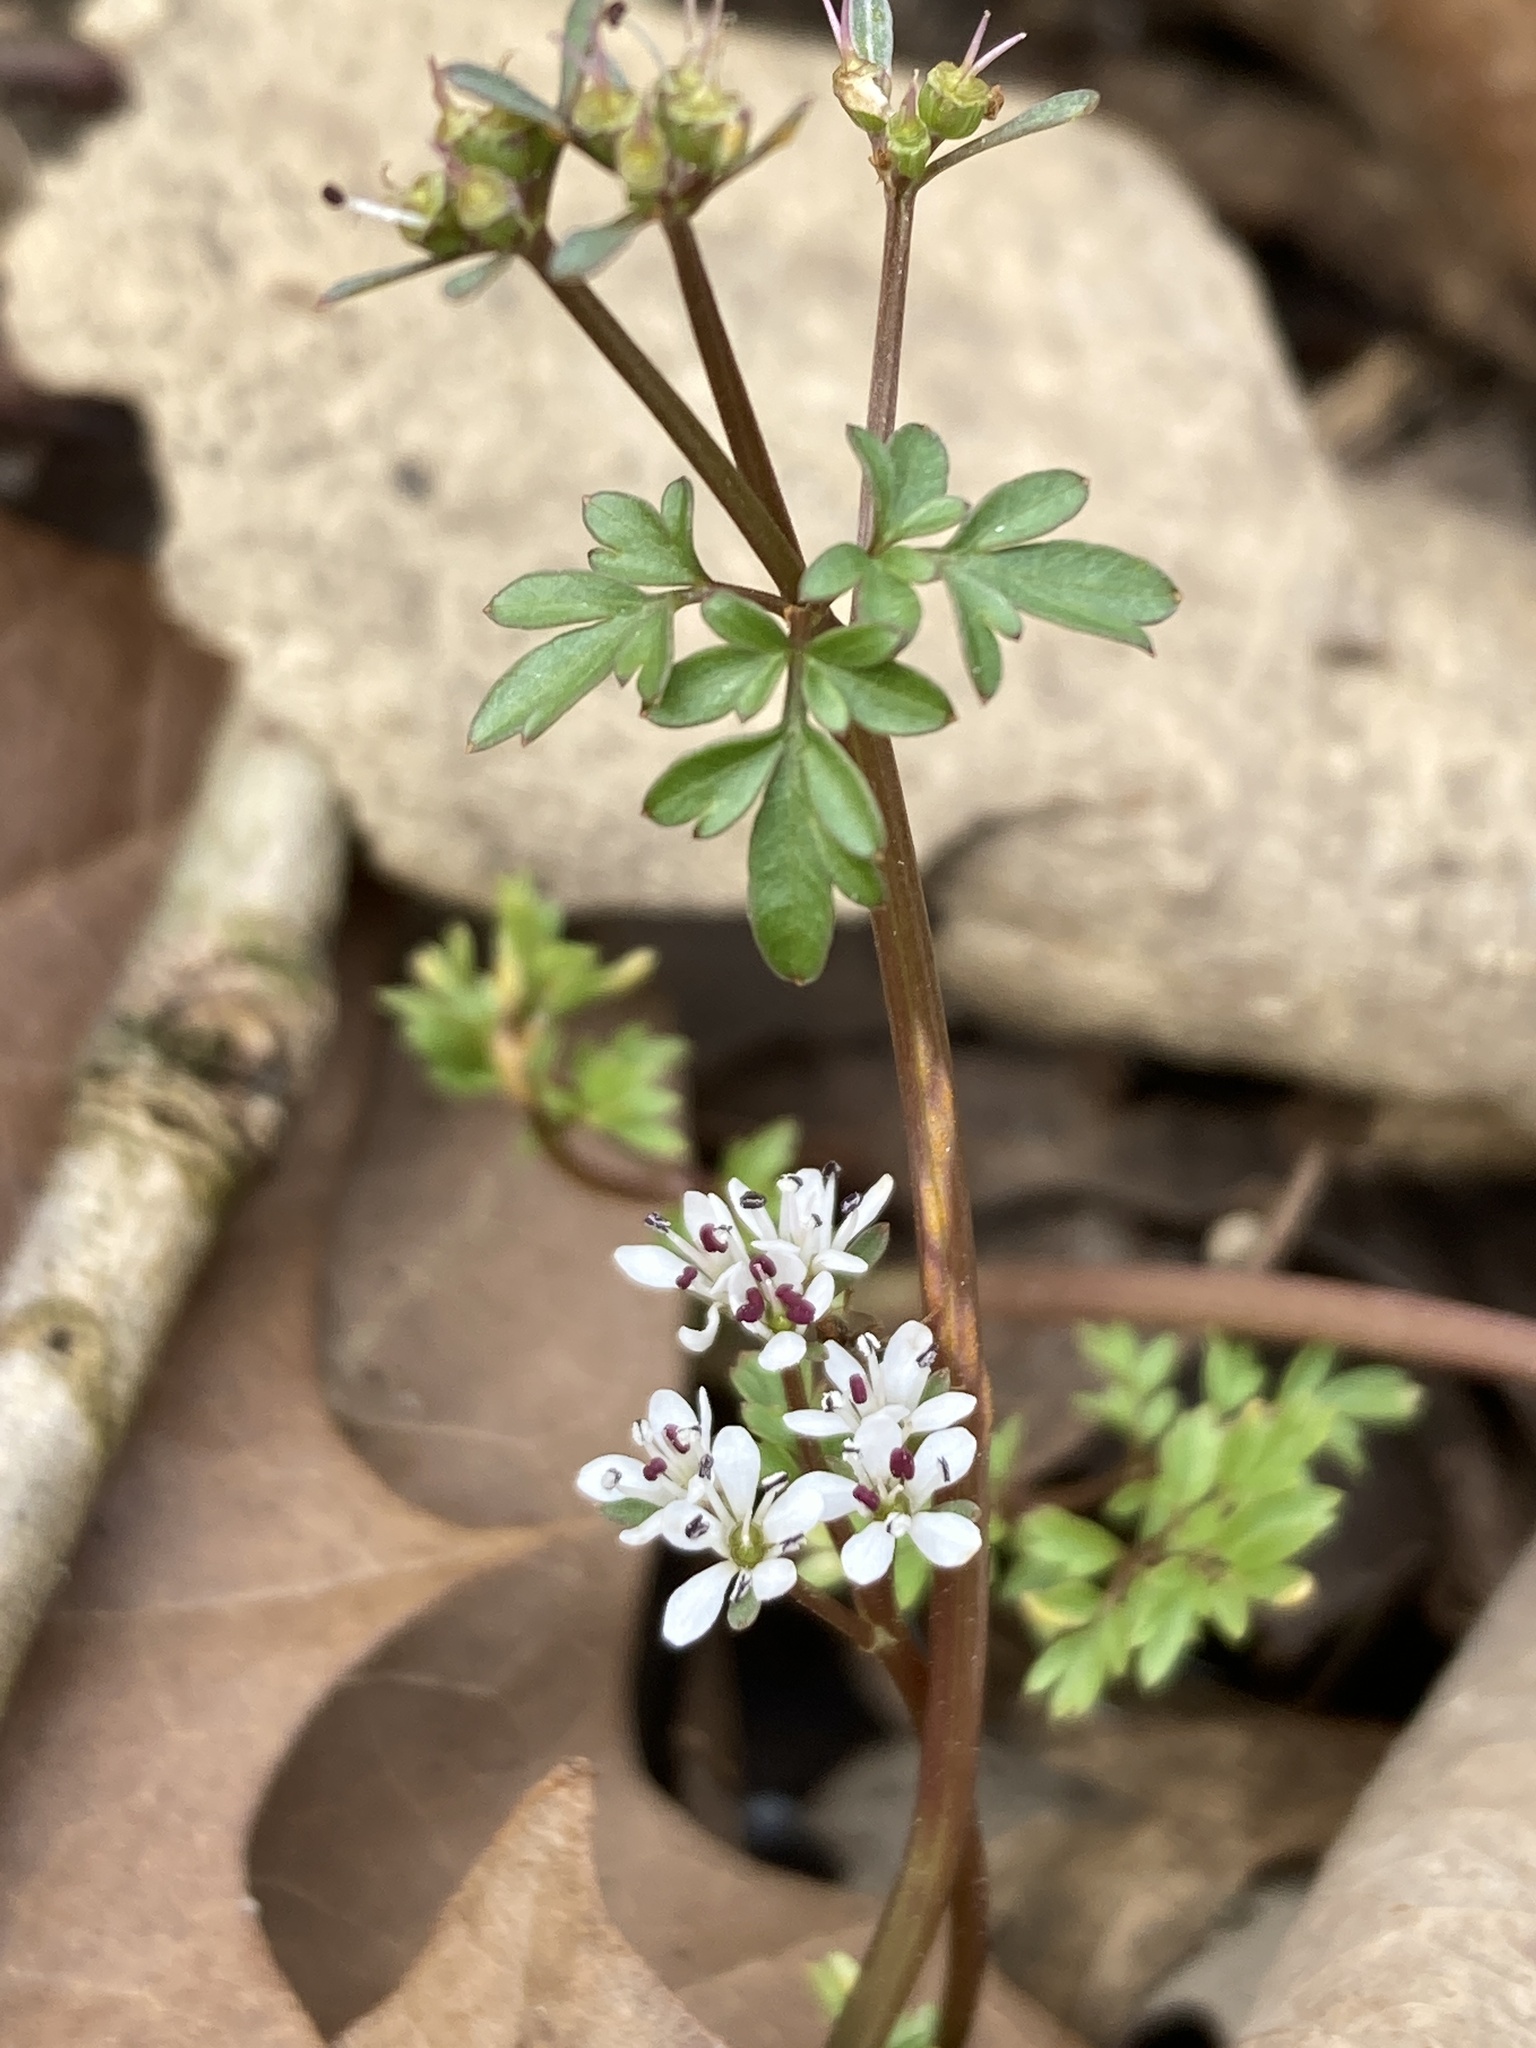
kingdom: Plantae
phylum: Tracheophyta
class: Magnoliopsida
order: Apiales
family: Apiaceae
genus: Erigenia
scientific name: Erigenia bulbosa
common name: Pepper-and-salt
